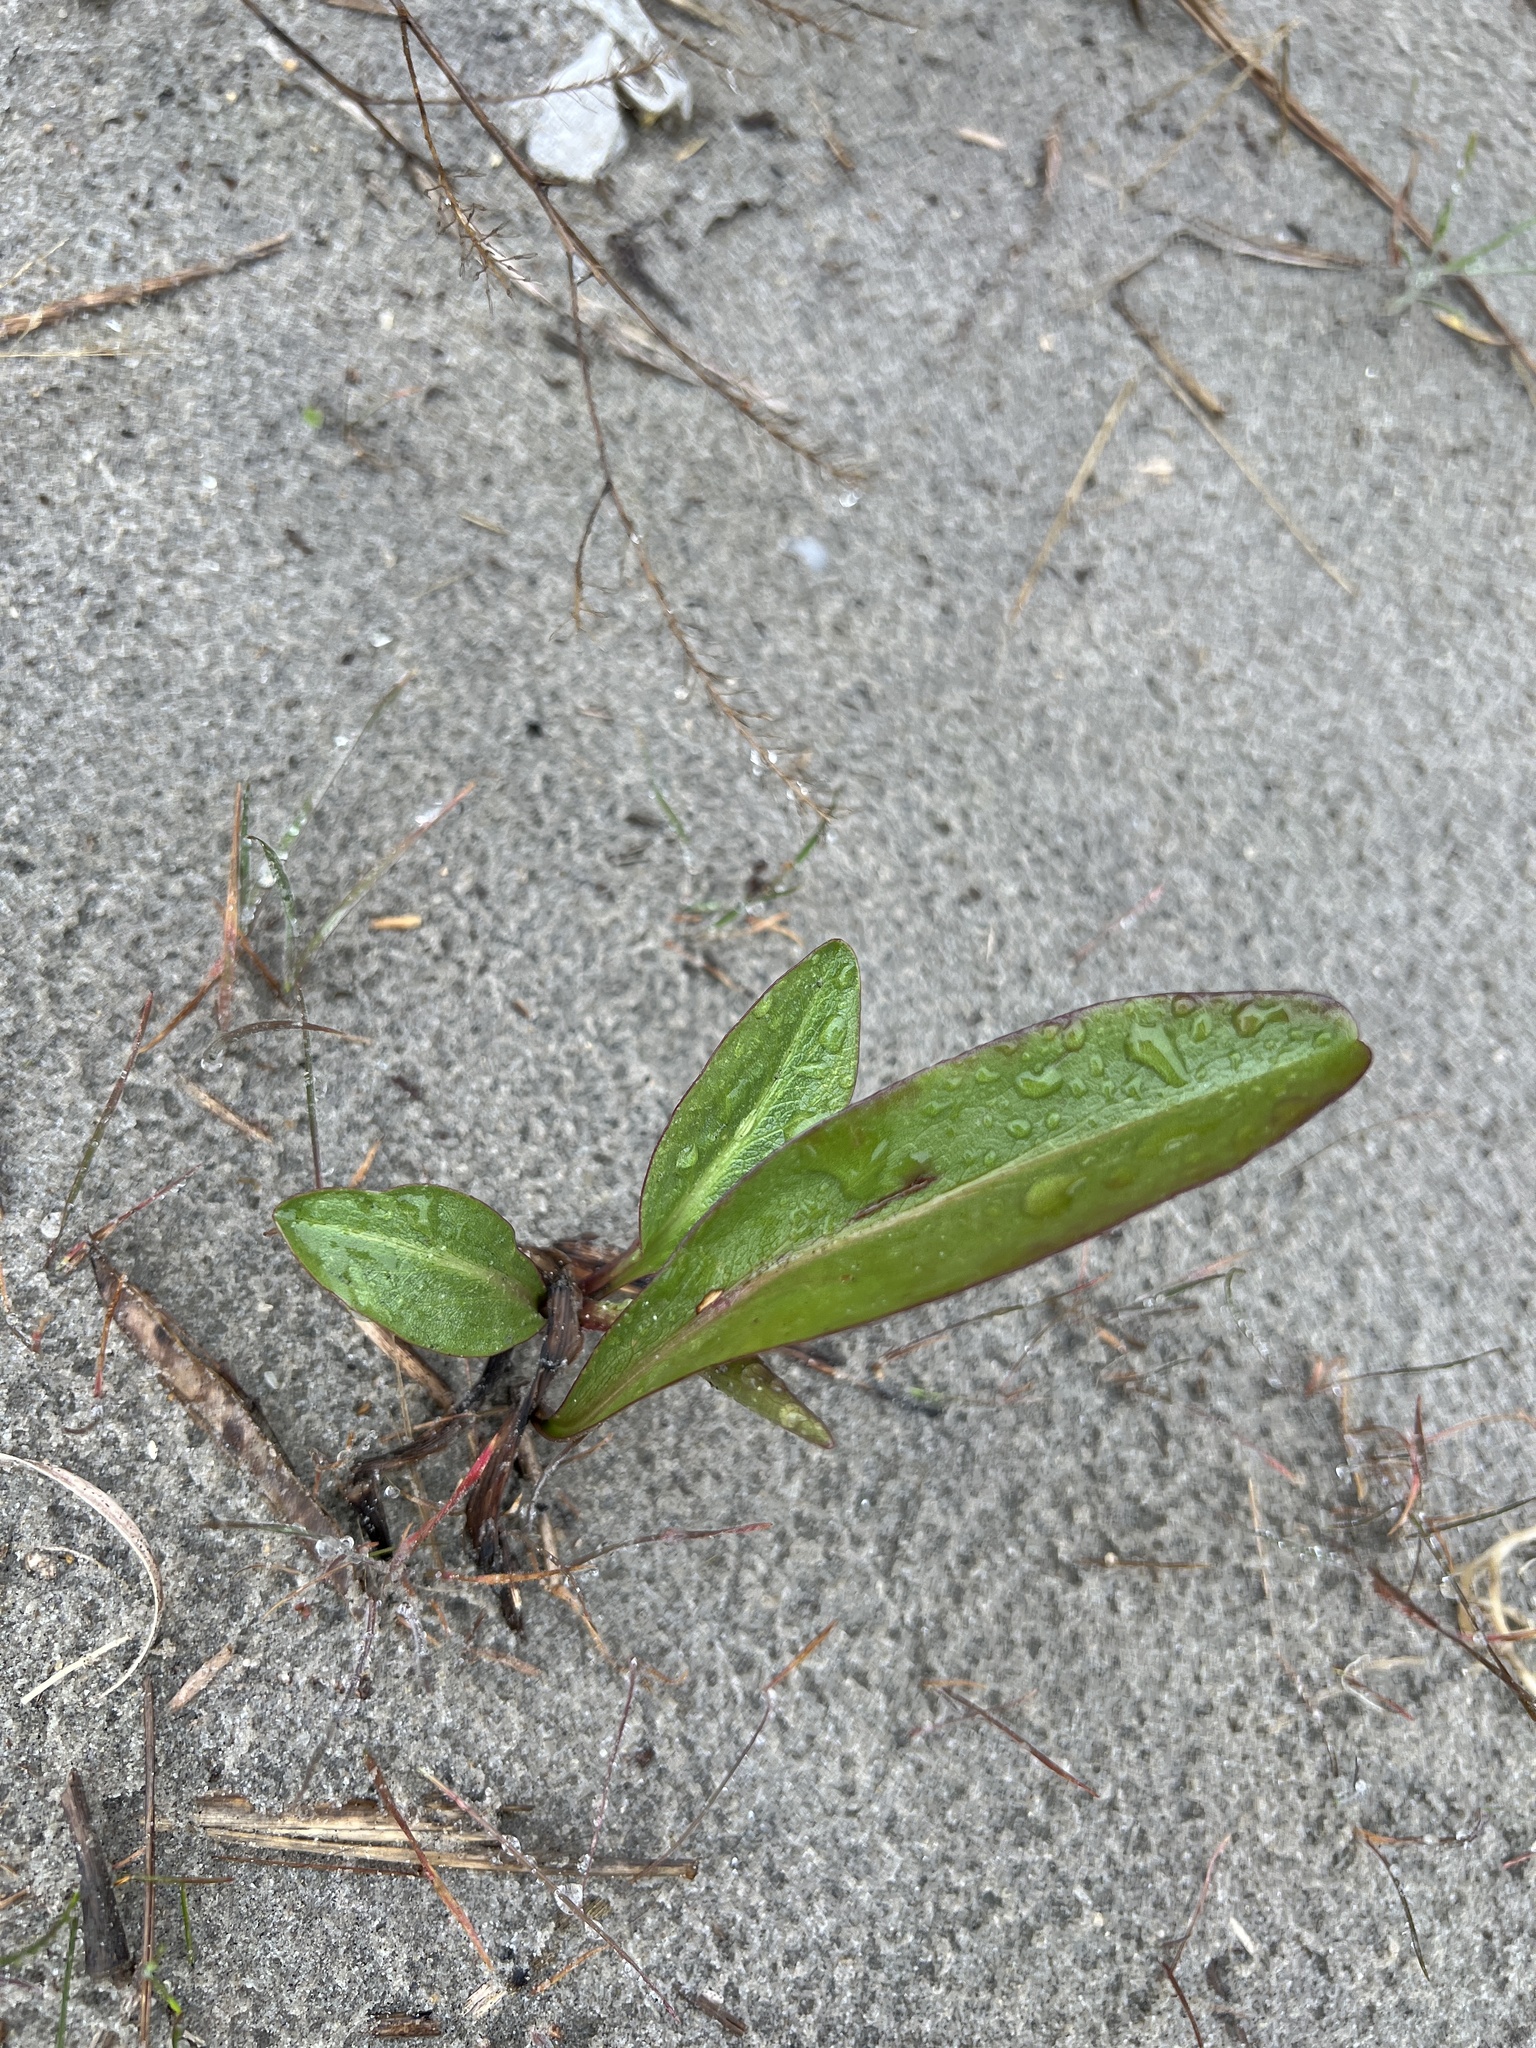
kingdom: Plantae
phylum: Tracheophyta
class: Magnoliopsida
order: Asterales
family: Asteraceae
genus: Solidago
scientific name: Solidago sempervirens
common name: Salt-marsh goldenrod
